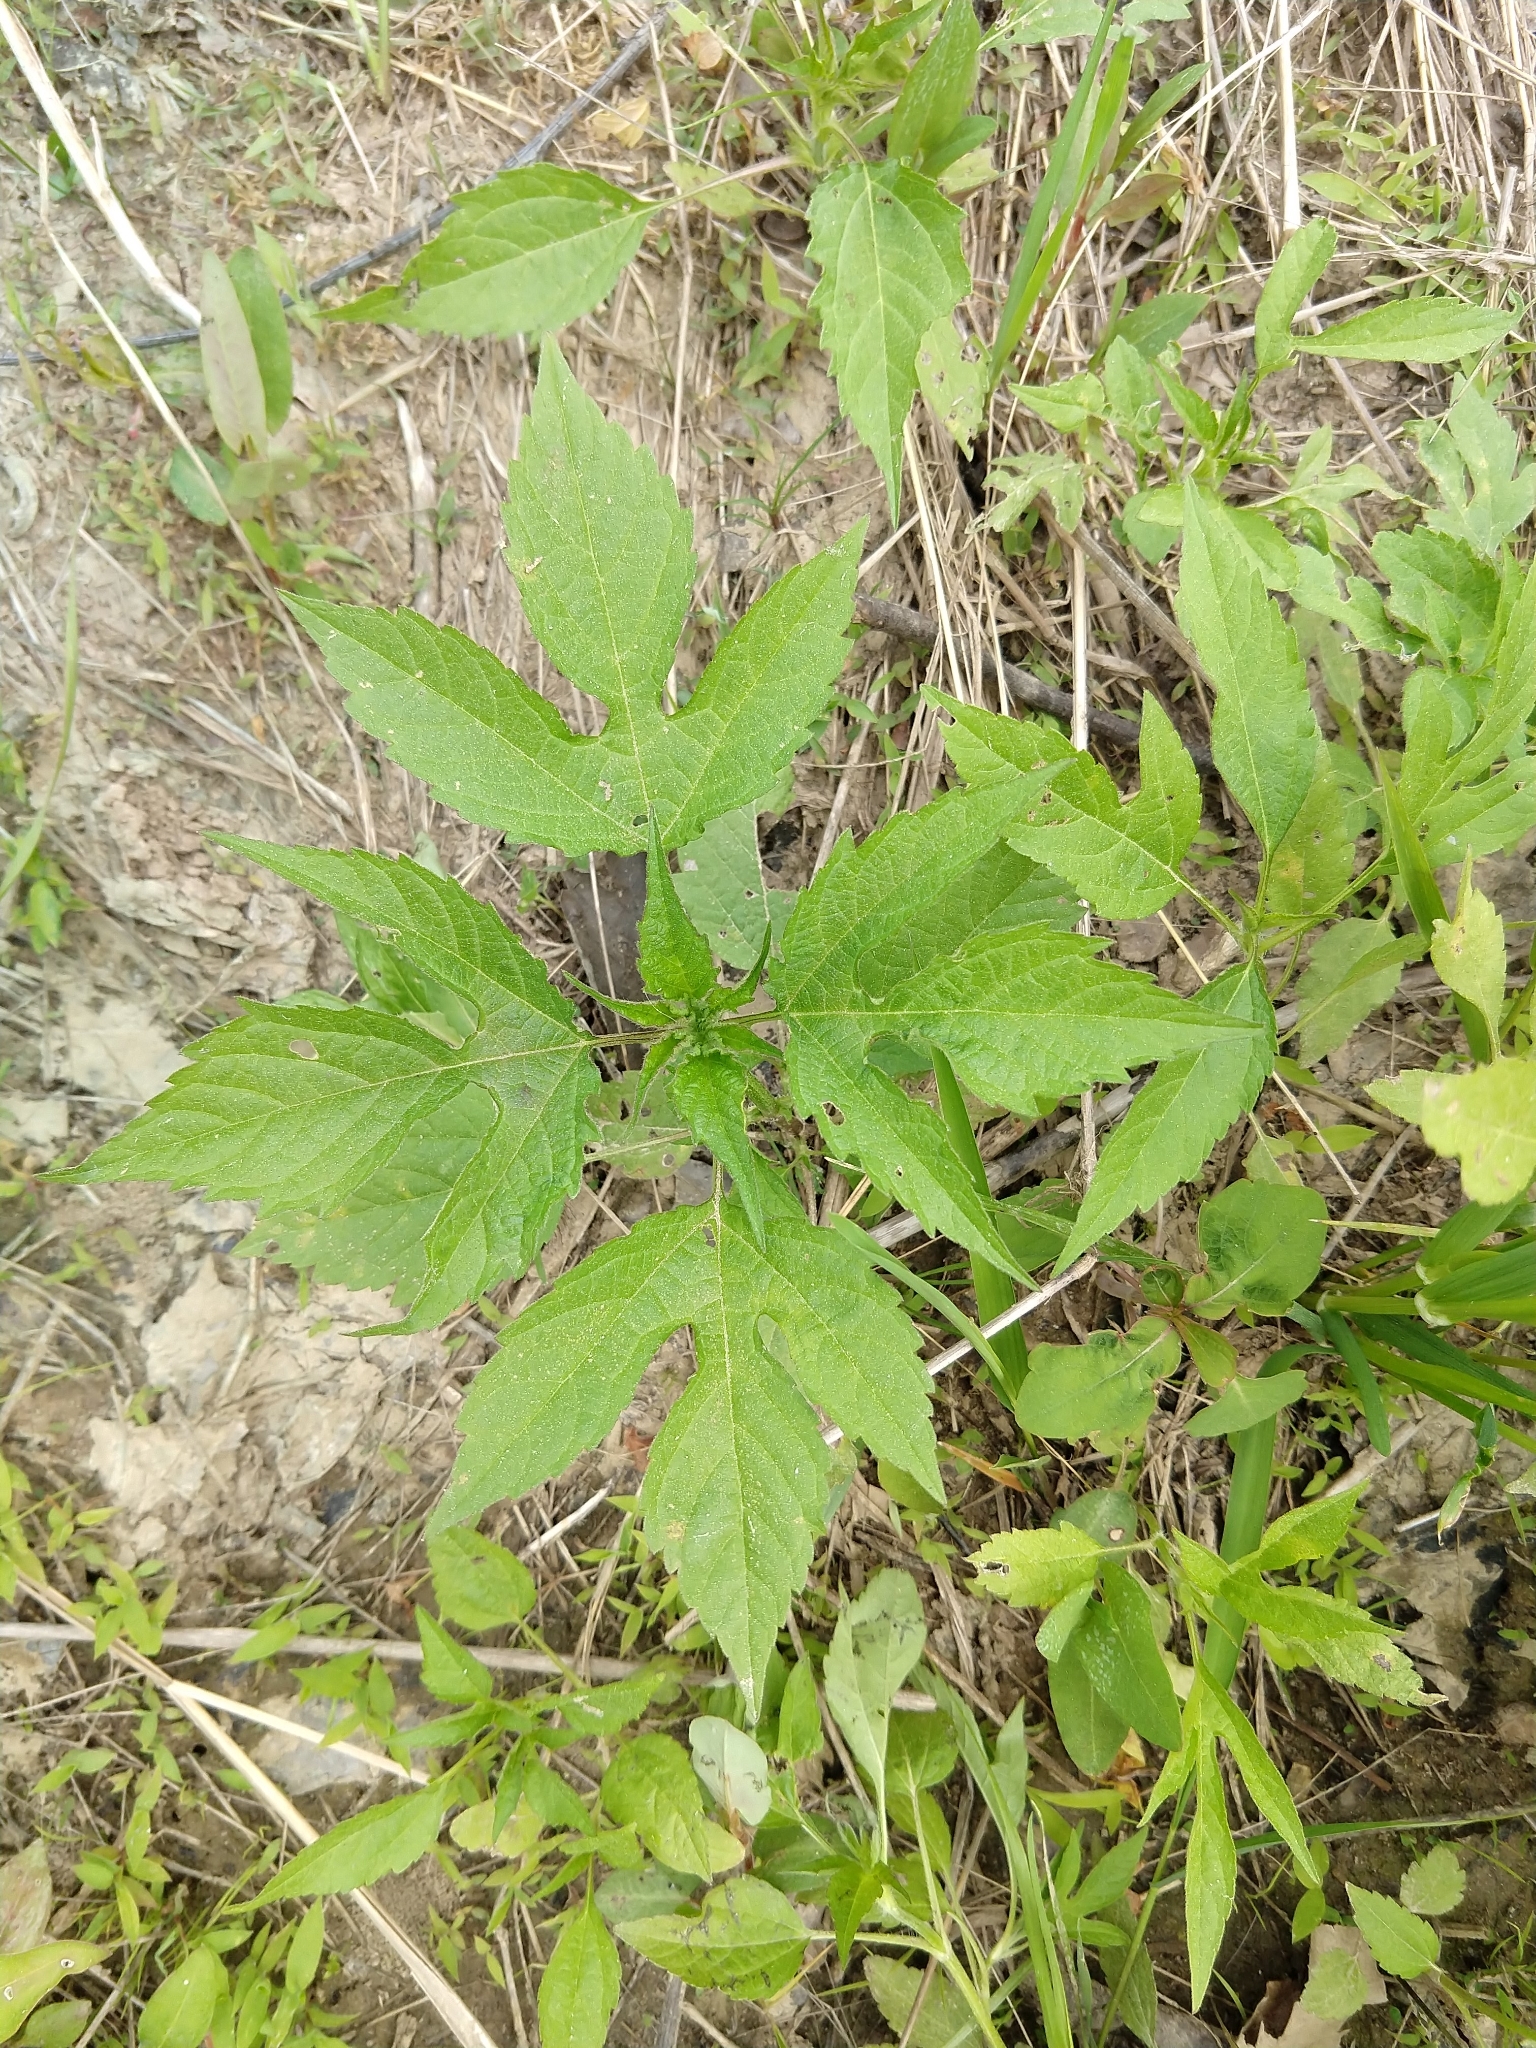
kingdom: Plantae
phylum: Tracheophyta
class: Magnoliopsida
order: Asterales
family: Asteraceae
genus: Ambrosia
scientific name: Ambrosia trifida
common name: Giant ragweed
